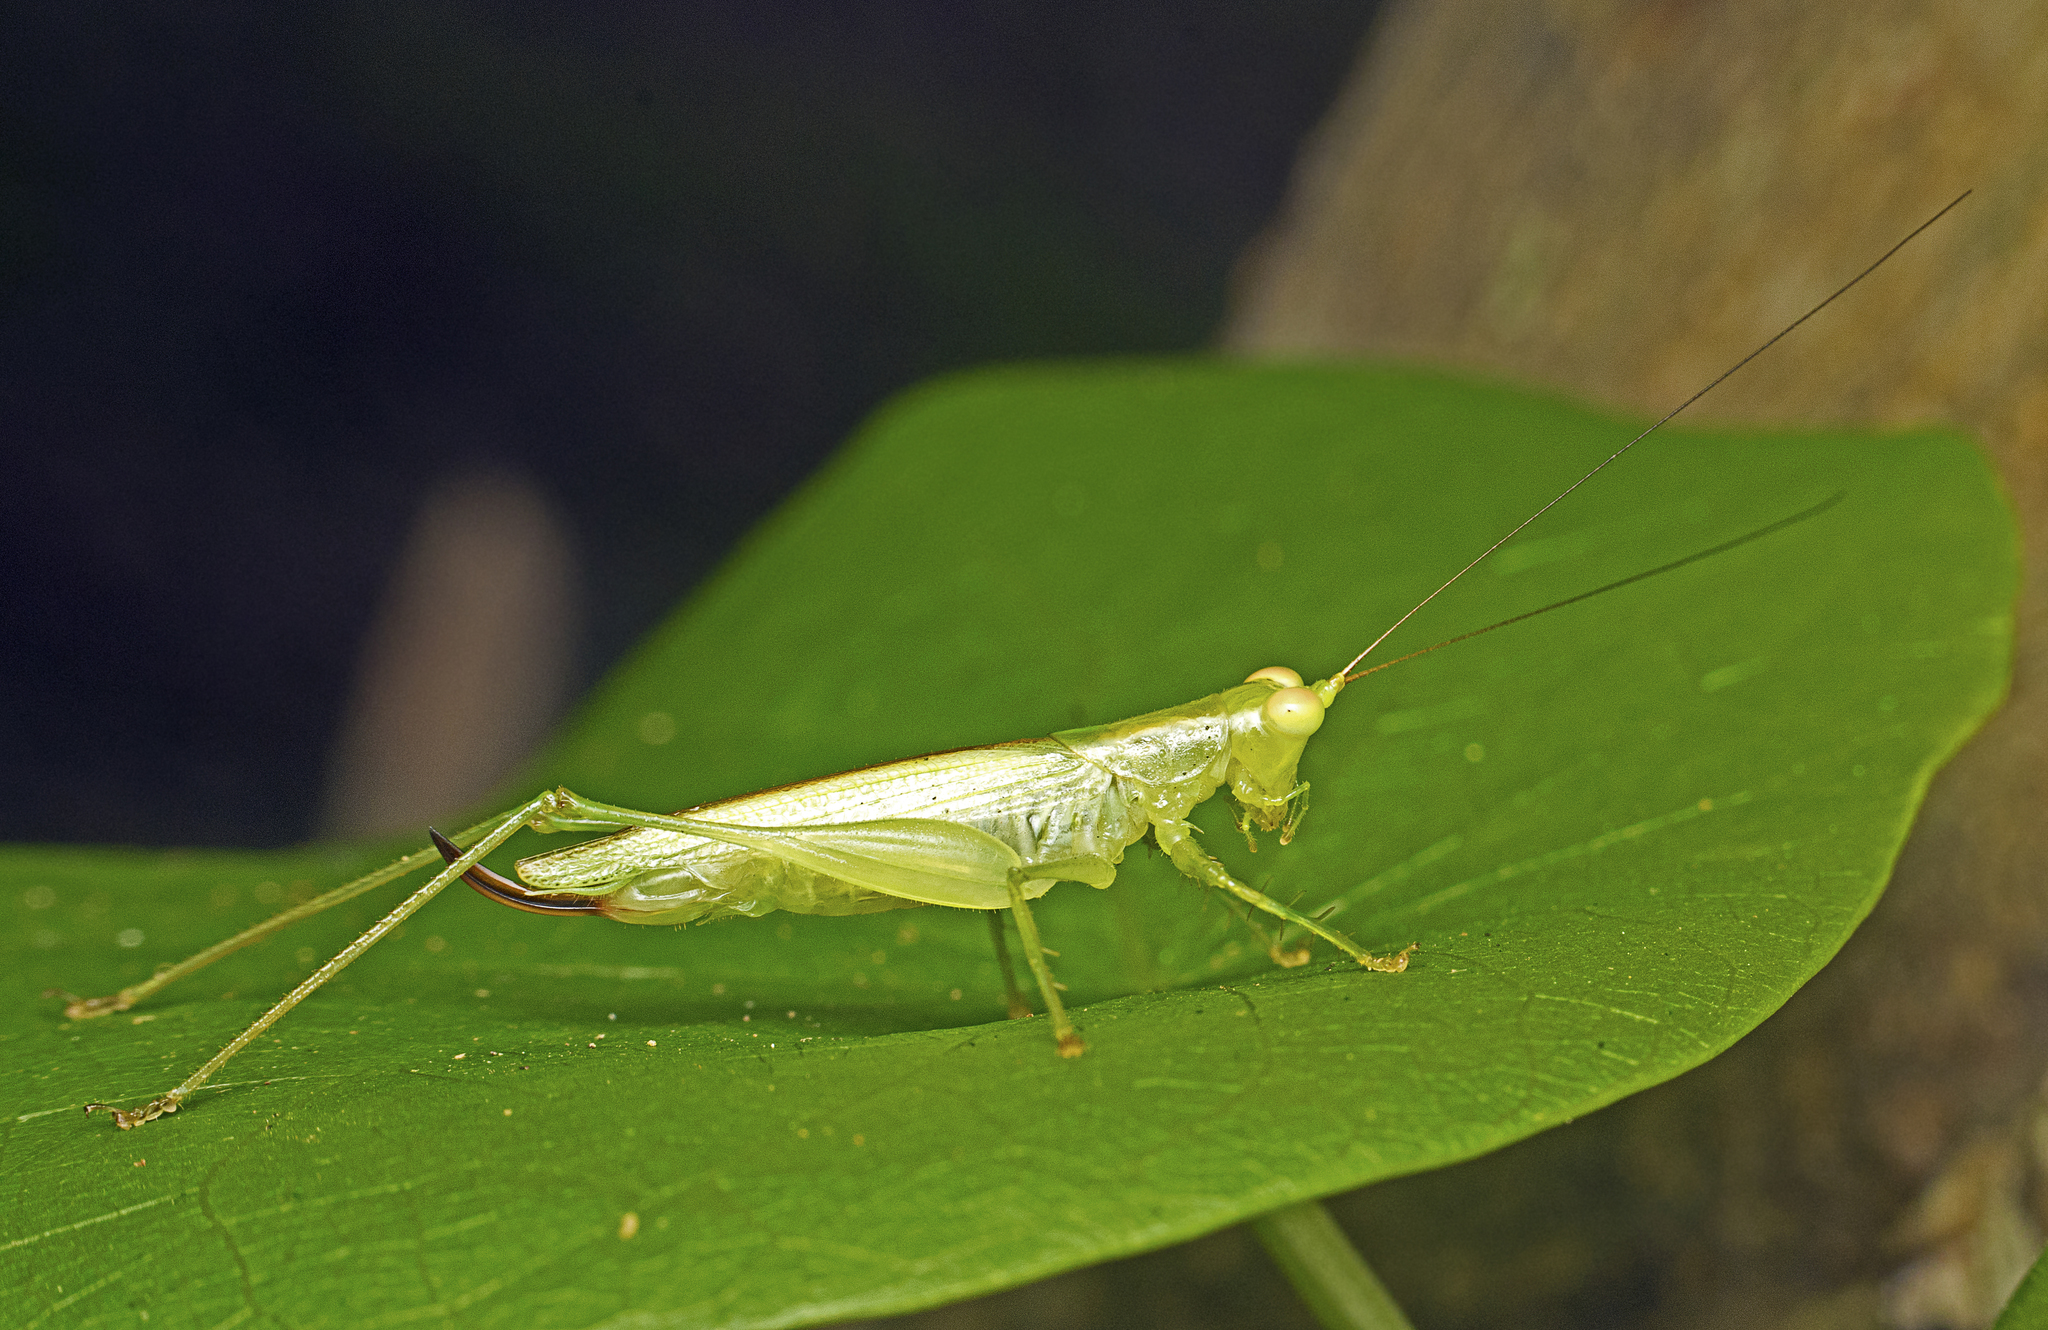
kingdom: Animalia
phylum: Arthropoda
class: Insecta
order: Orthoptera
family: Tettigoniidae
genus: Austrophlugis
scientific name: Austrophlugis debaari
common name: Debaar's swayer
